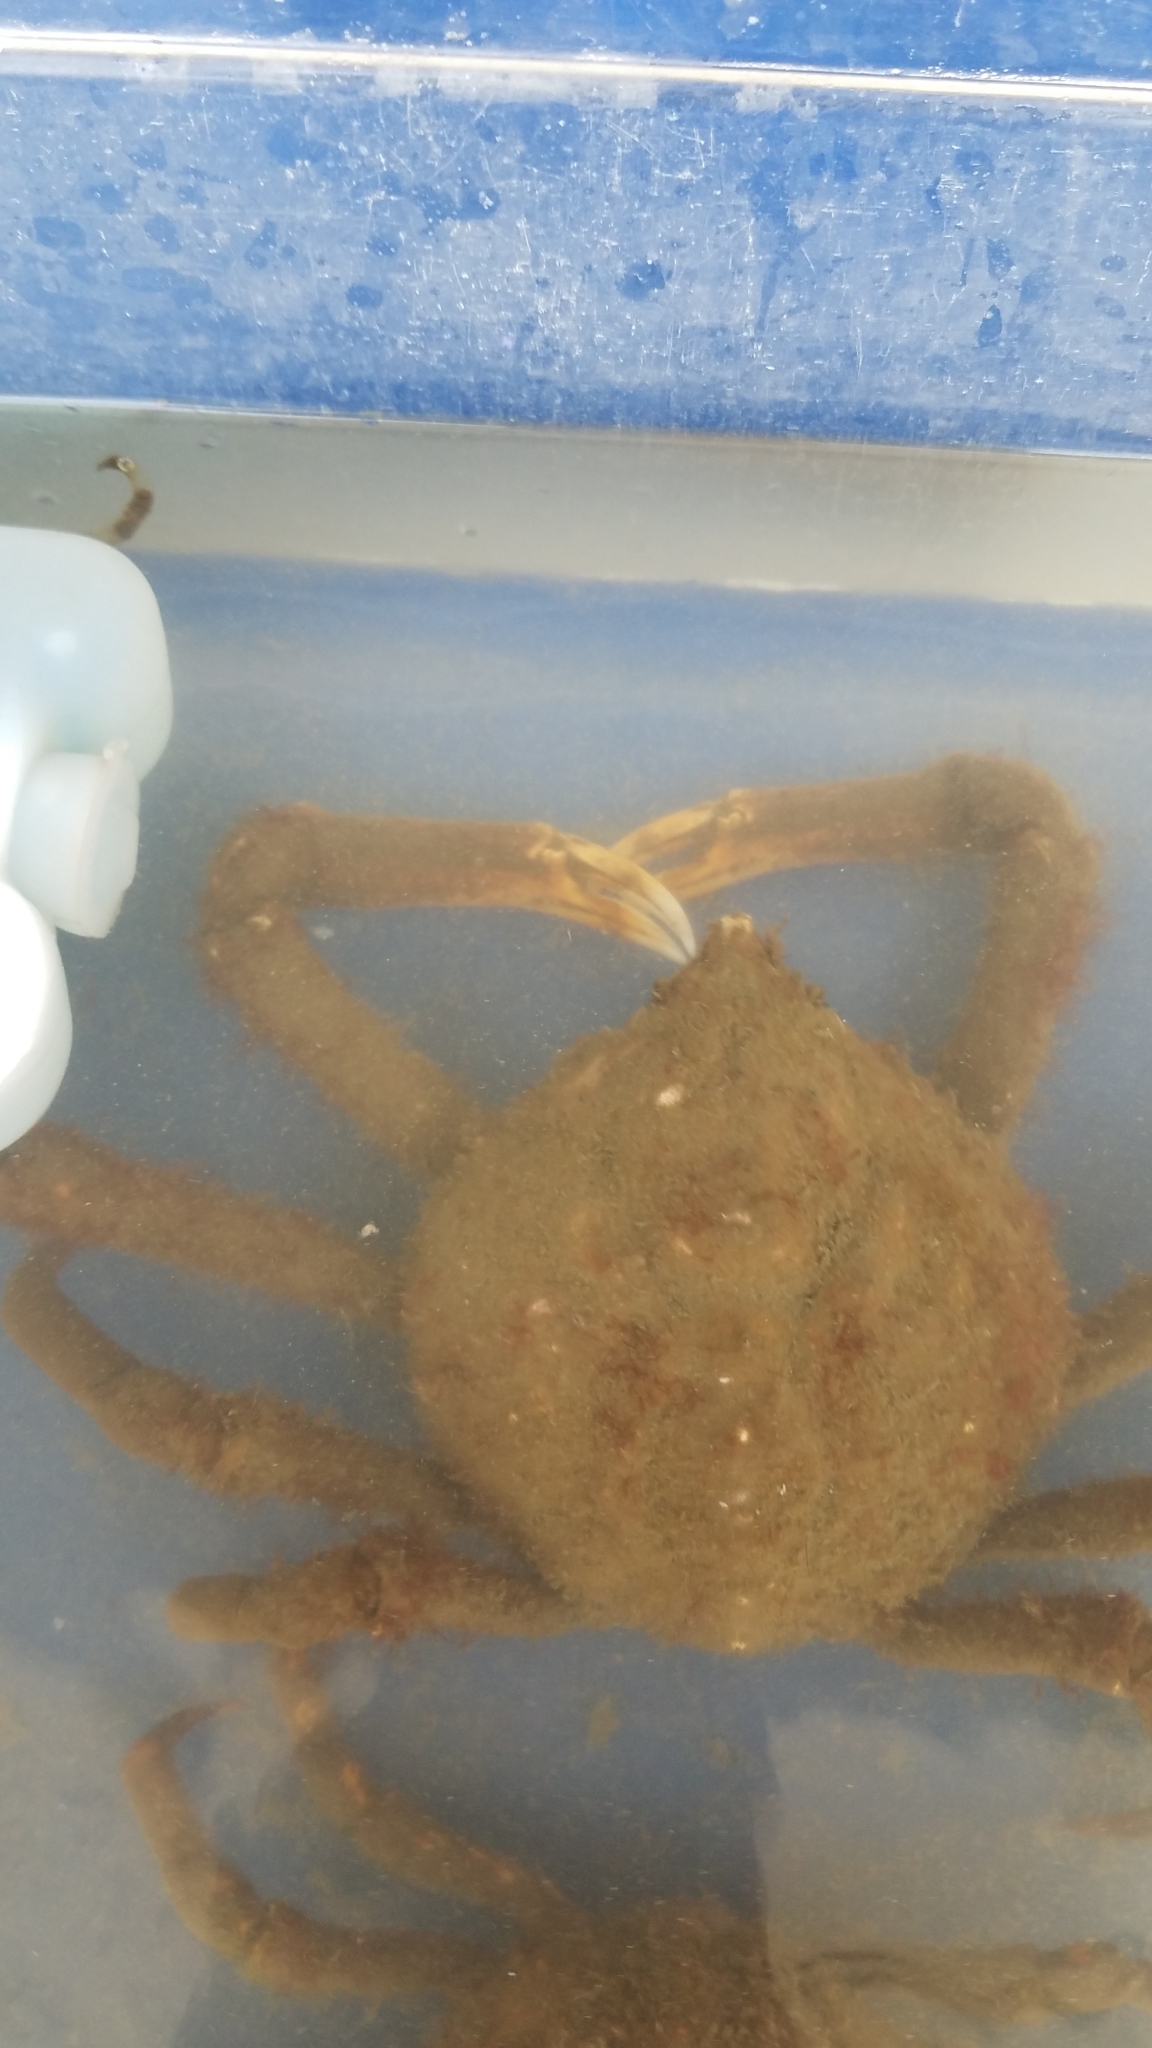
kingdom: Animalia
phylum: Arthropoda
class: Malacostraca
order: Decapoda
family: Epialtidae
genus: Libinia
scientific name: Libinia emarginata
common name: Common spider crab
